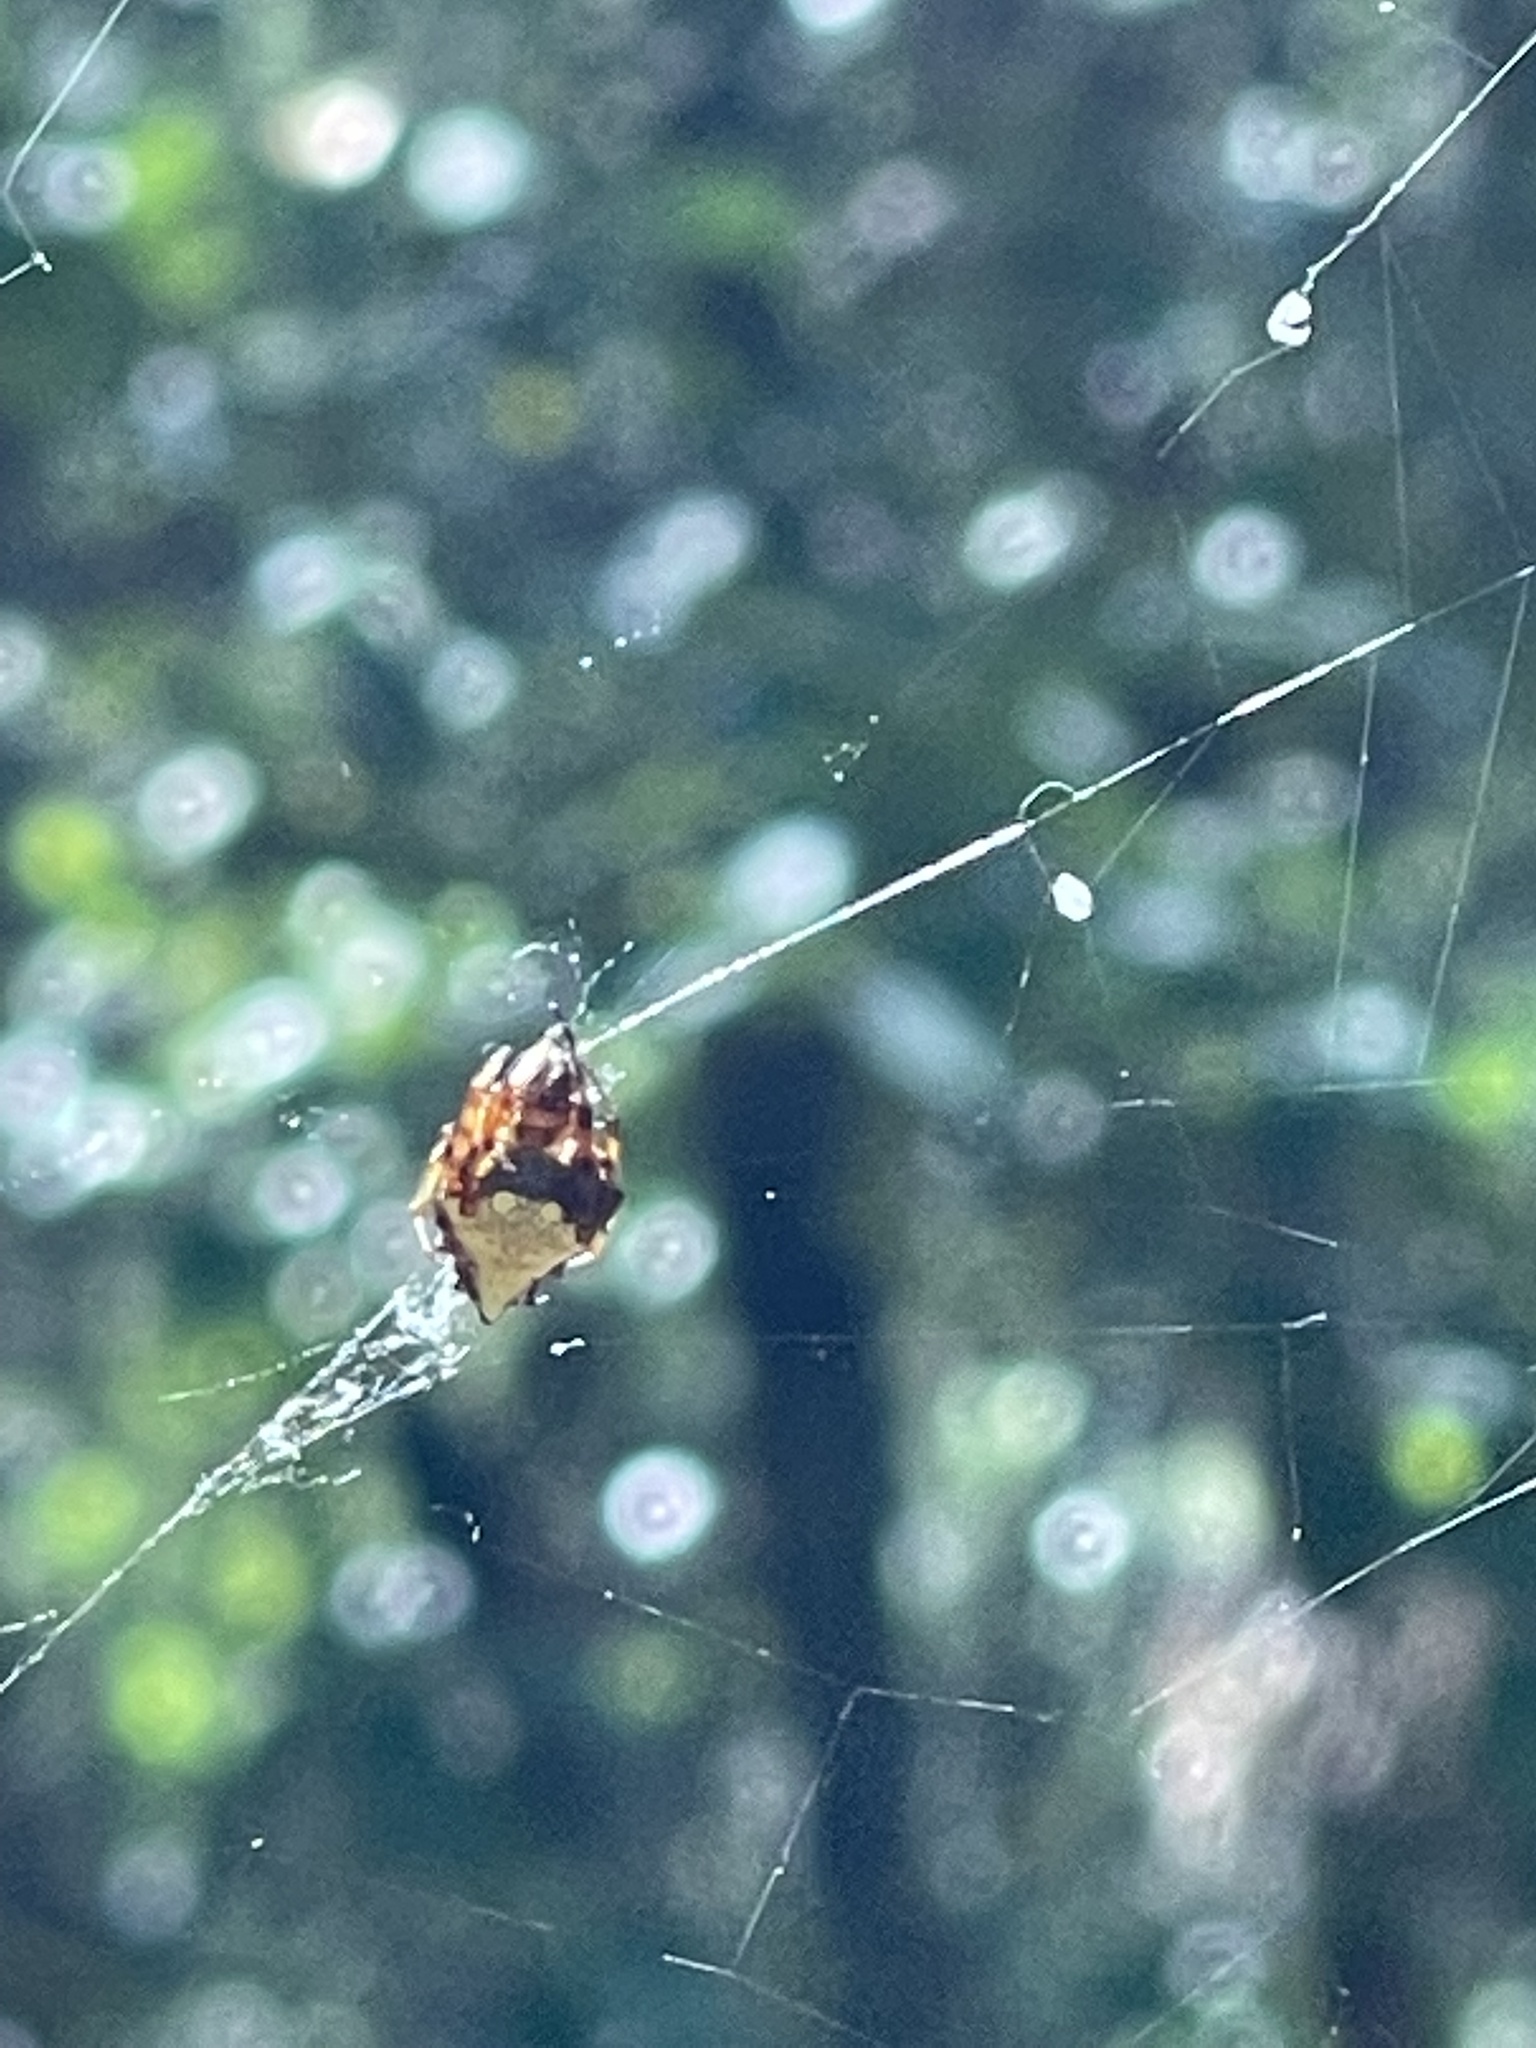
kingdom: Animalia
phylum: Arthropoda
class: Arachnida
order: Araneae
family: Araneidae
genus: Verrucosa
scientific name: Verrucosa arenata
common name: Orb weavers
